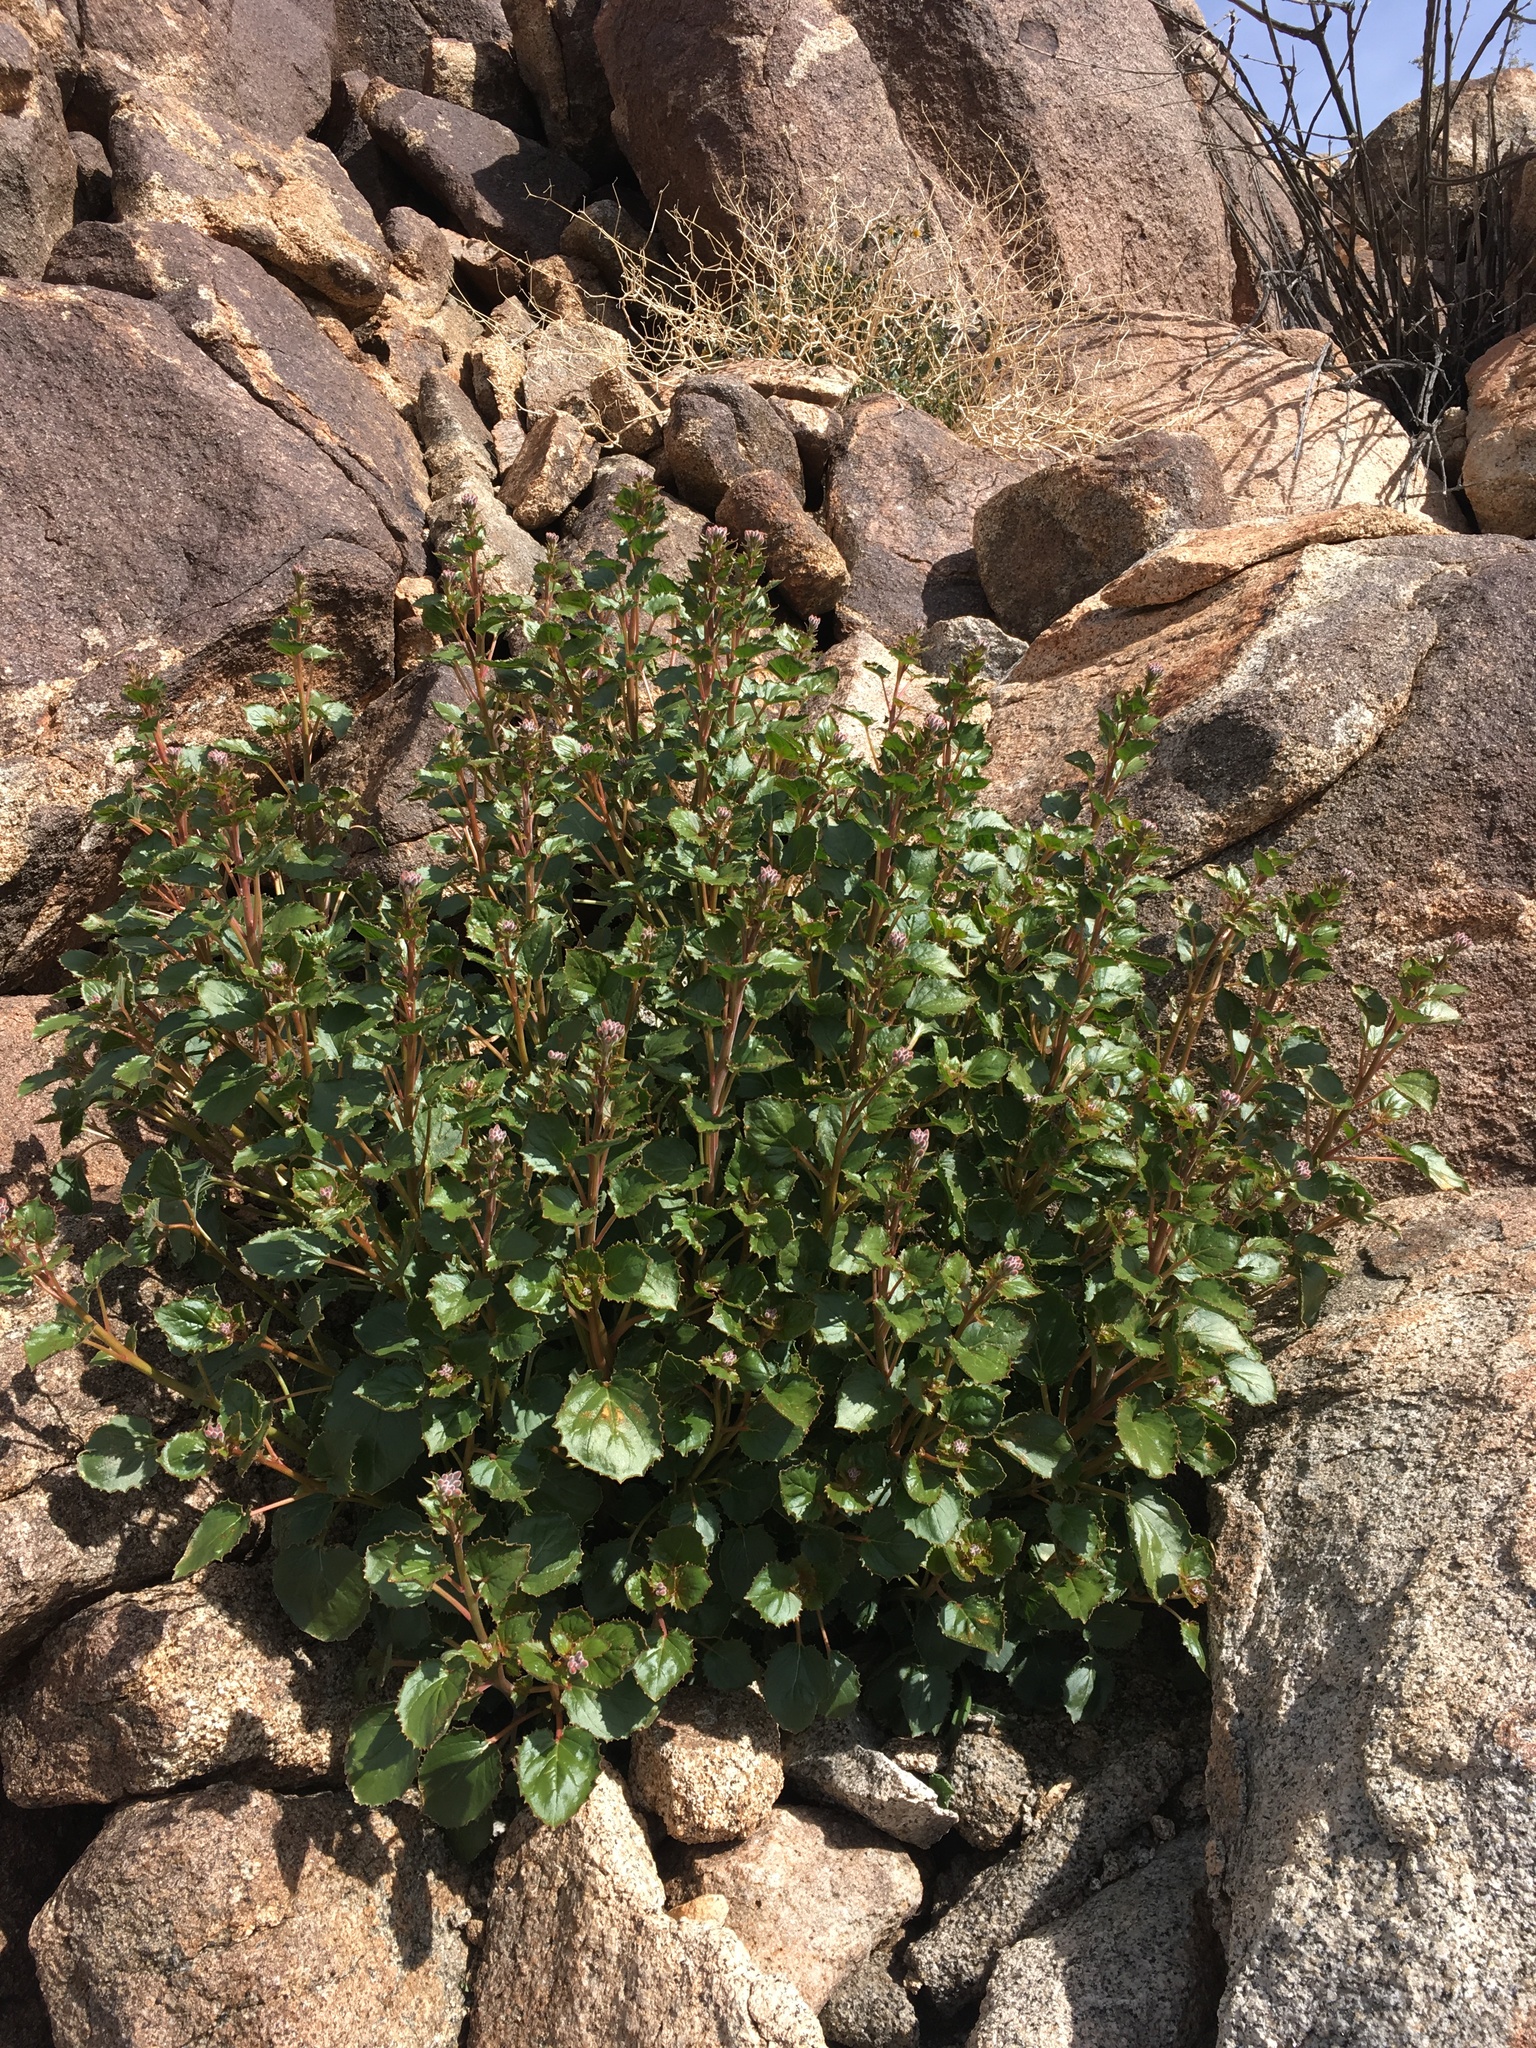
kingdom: Plantae
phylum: Tracheophyta
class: Magnoliopsida
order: Myrtales
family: Onagraceae
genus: Chylismia
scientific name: Chylismia cardiophylla
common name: Heartleaf suncup
